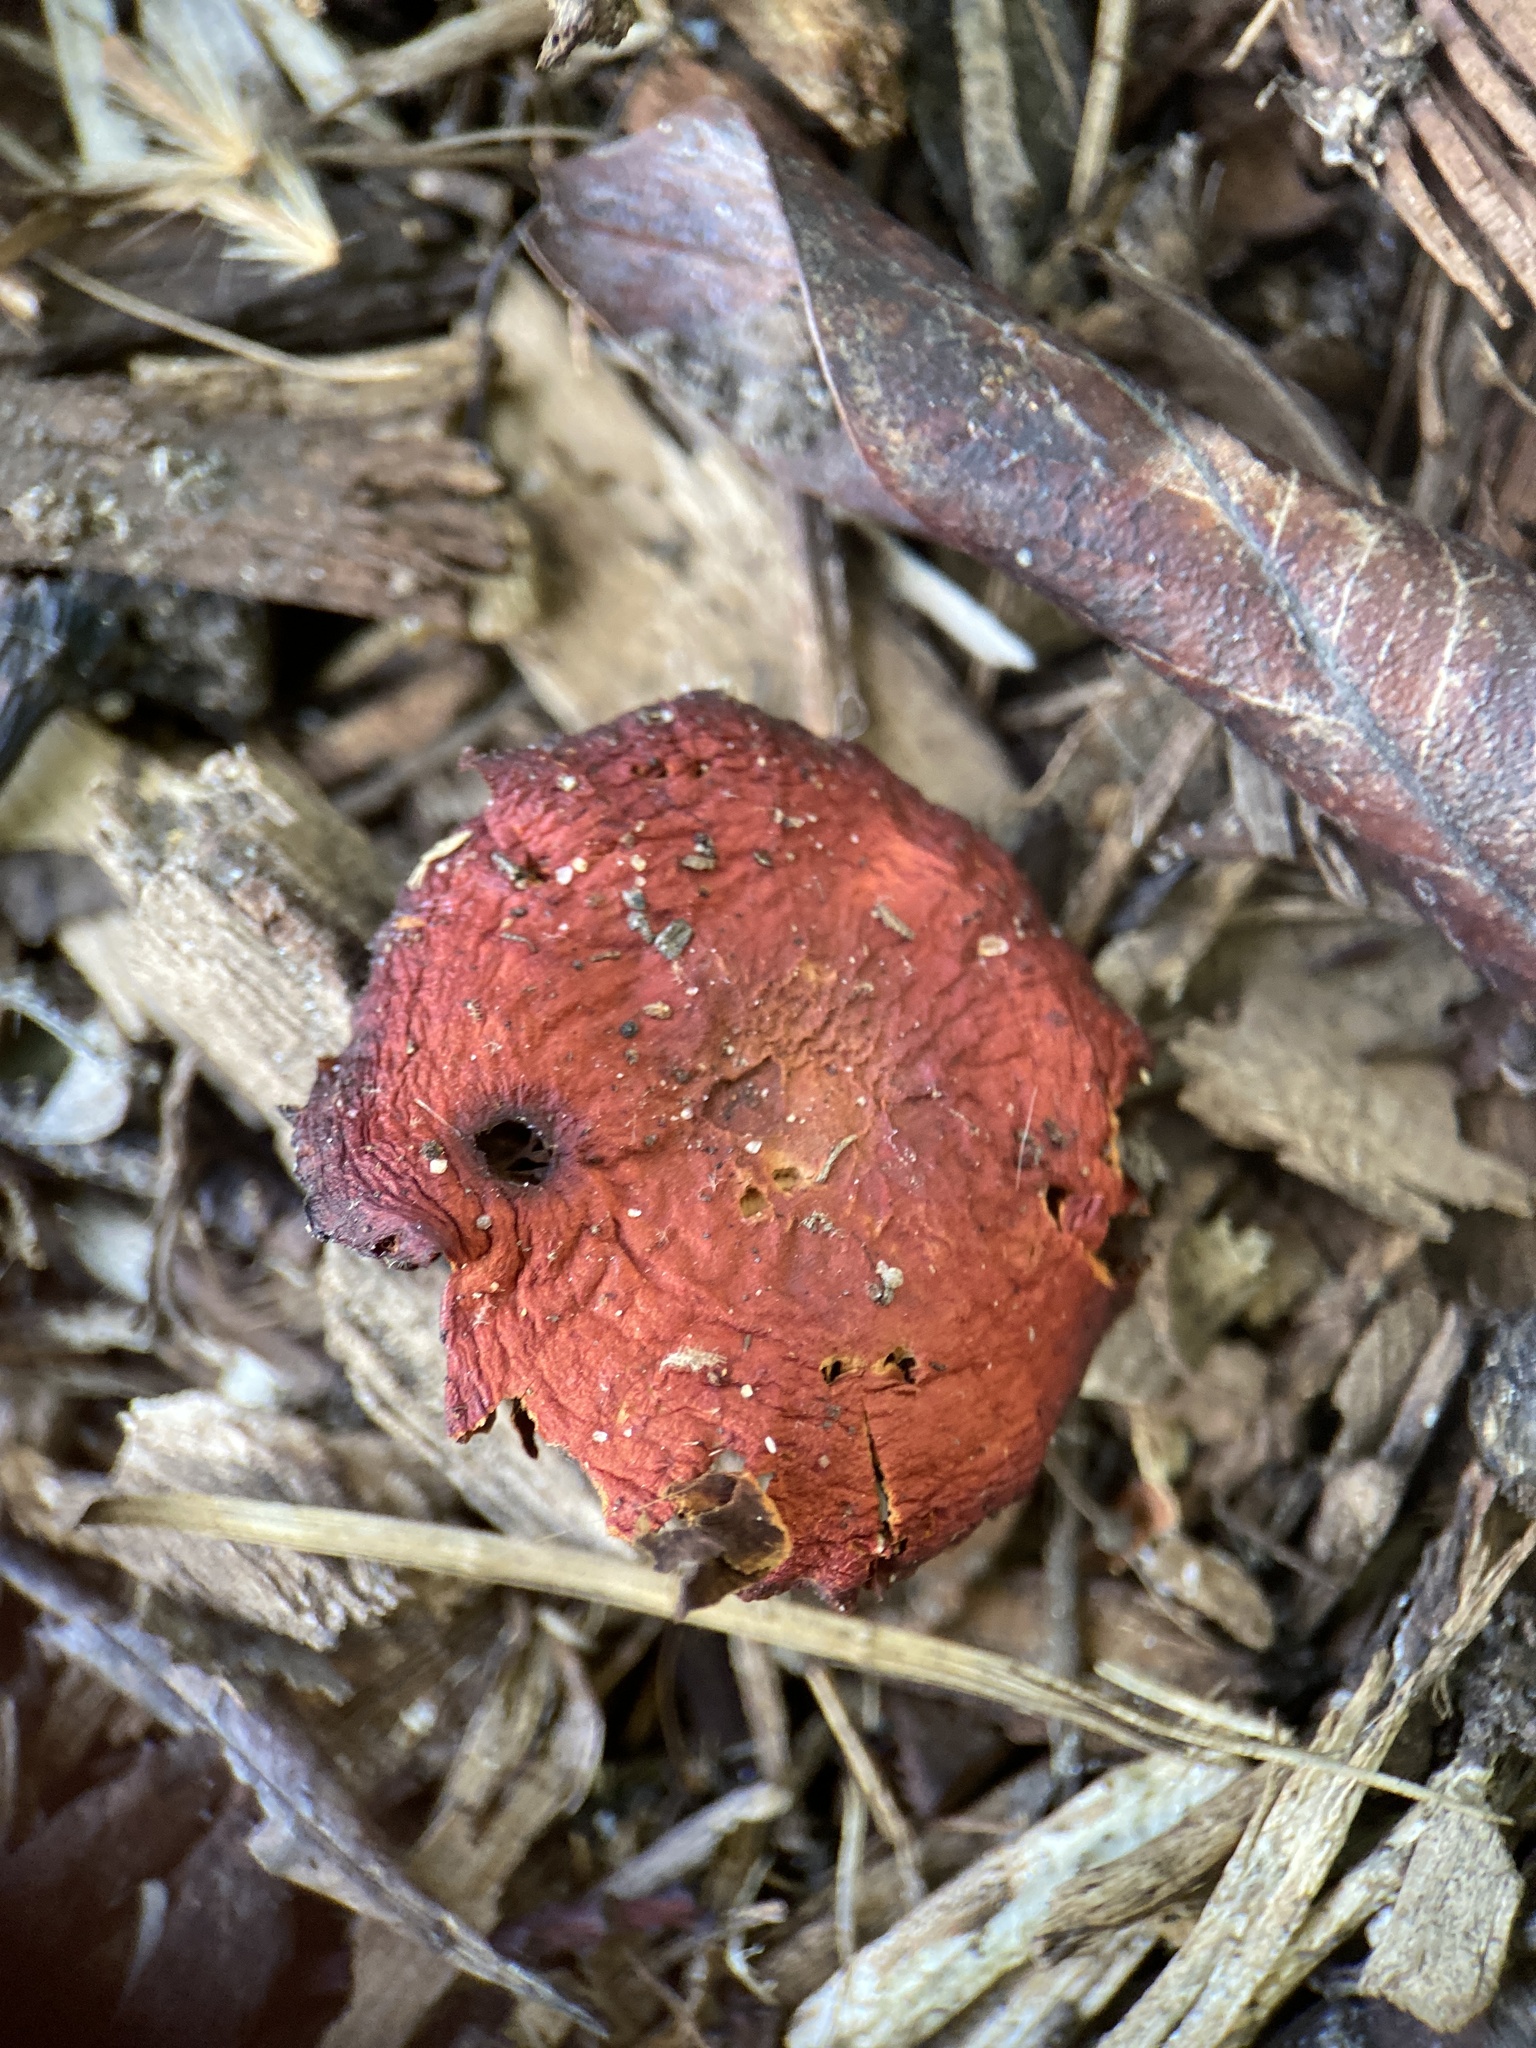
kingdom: Fungi
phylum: Basidiomycota
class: Agaricomycetes
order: Agaricales
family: Strophariaceae
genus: Leratiomyces
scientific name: Leratiomyces ceres
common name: Redlead roundhead
